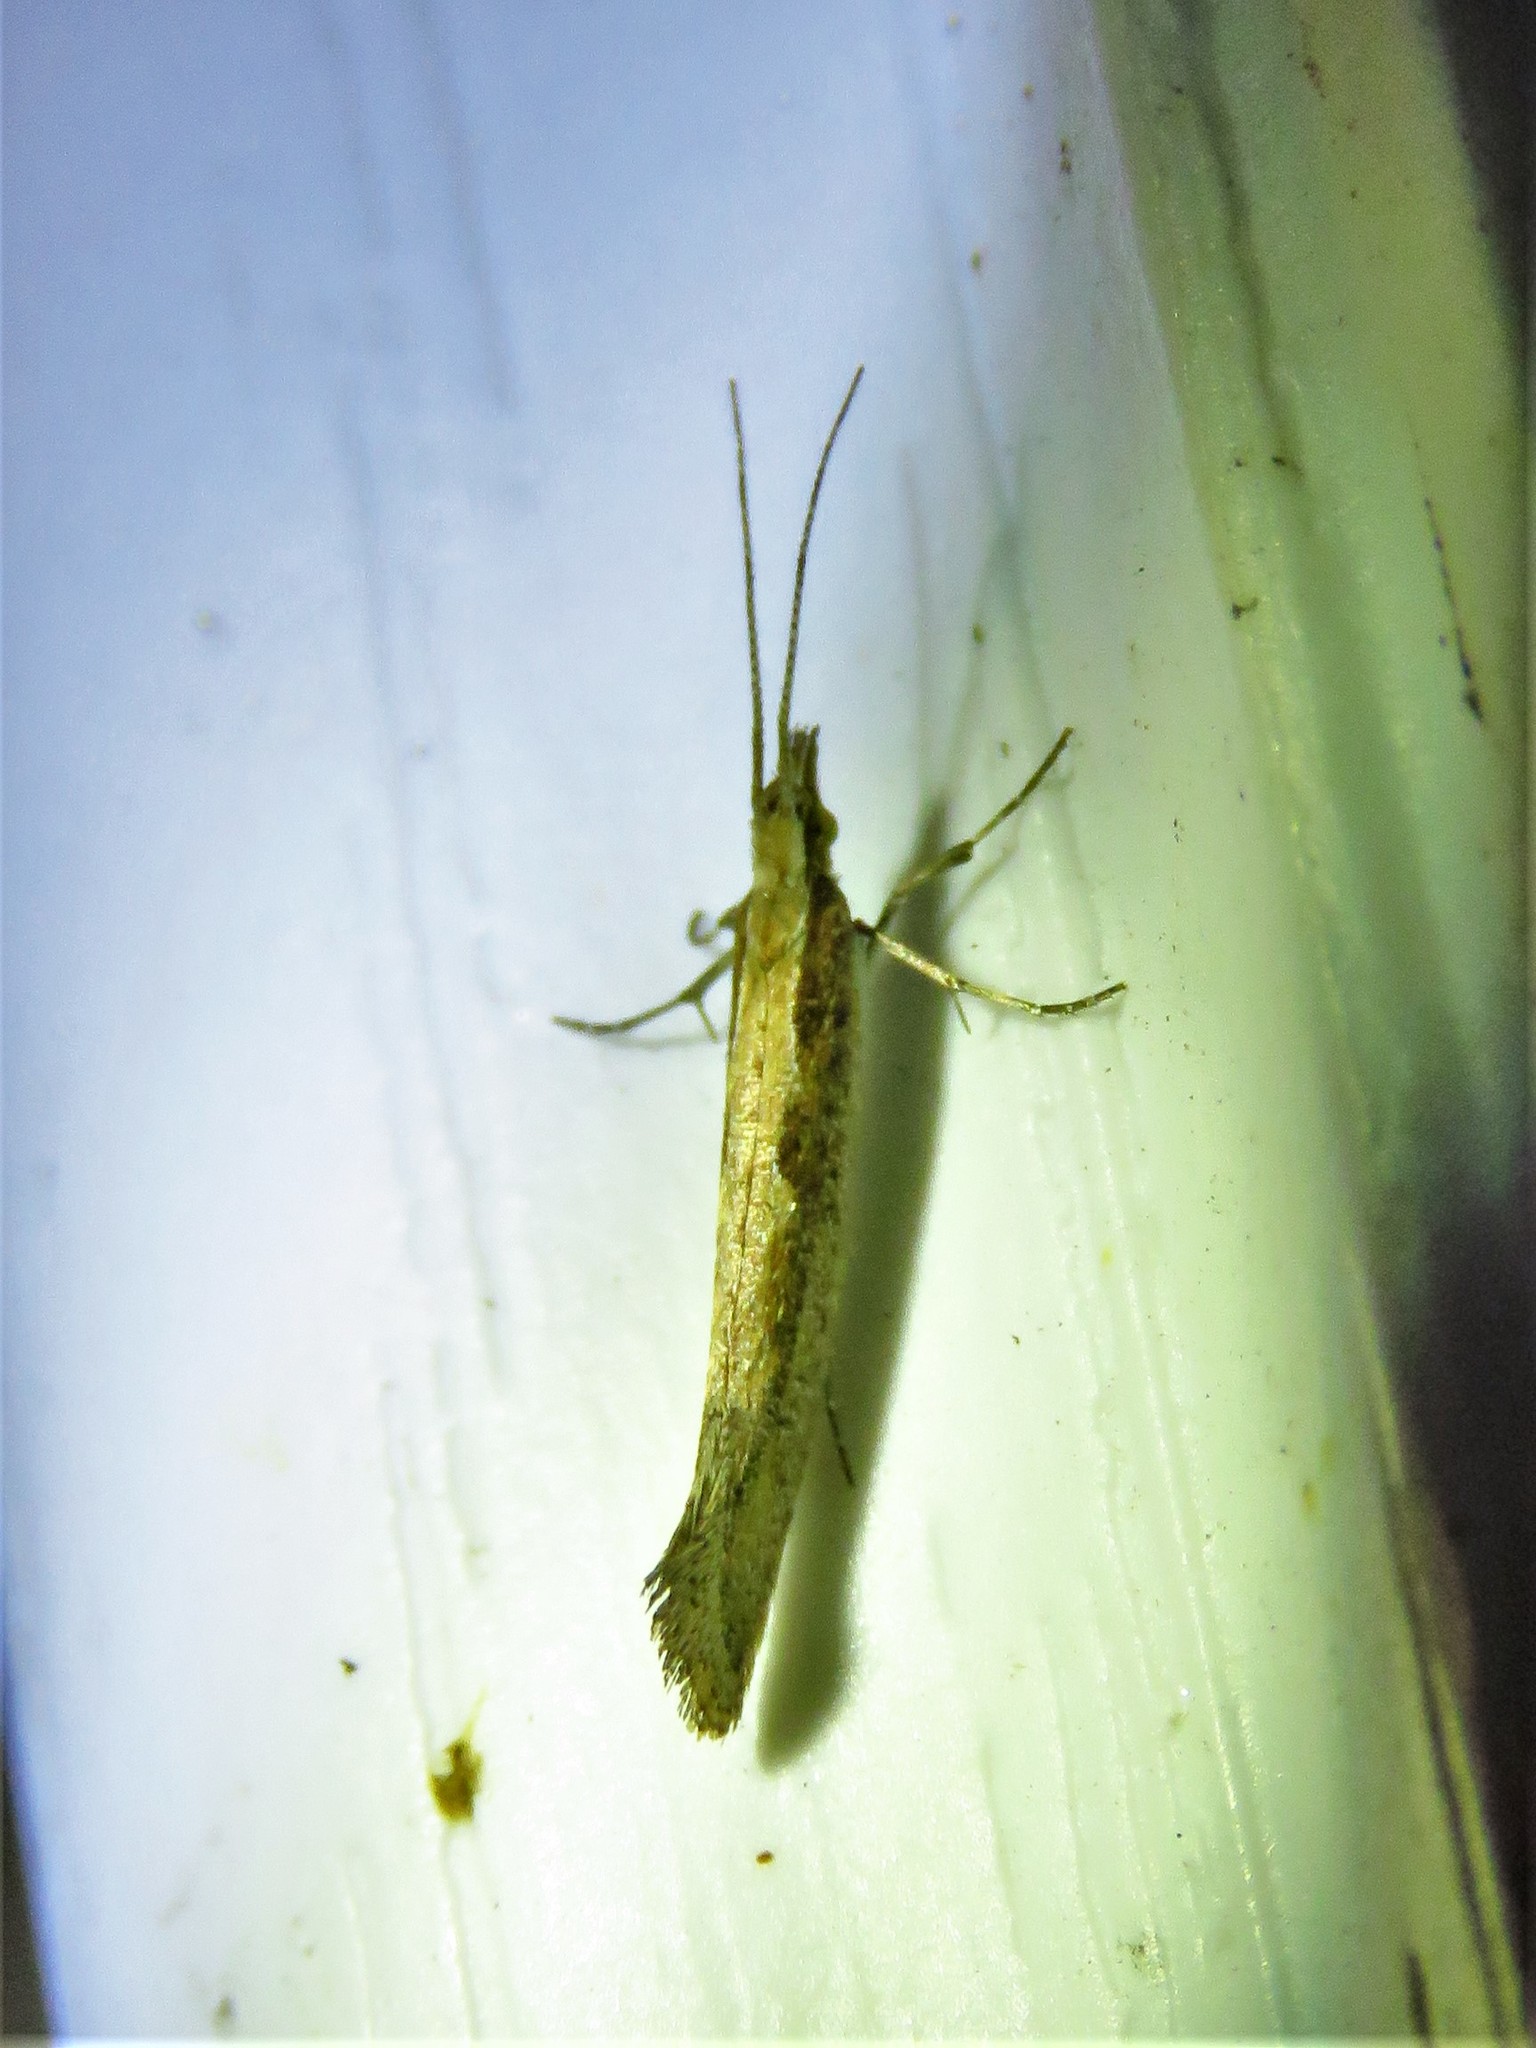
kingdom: Animalia
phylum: Arthropoda
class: Insecta
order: Lepidoptera
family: Plutellidae
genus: Plutella
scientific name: Plutella xylostella
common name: Diamond-back moth
